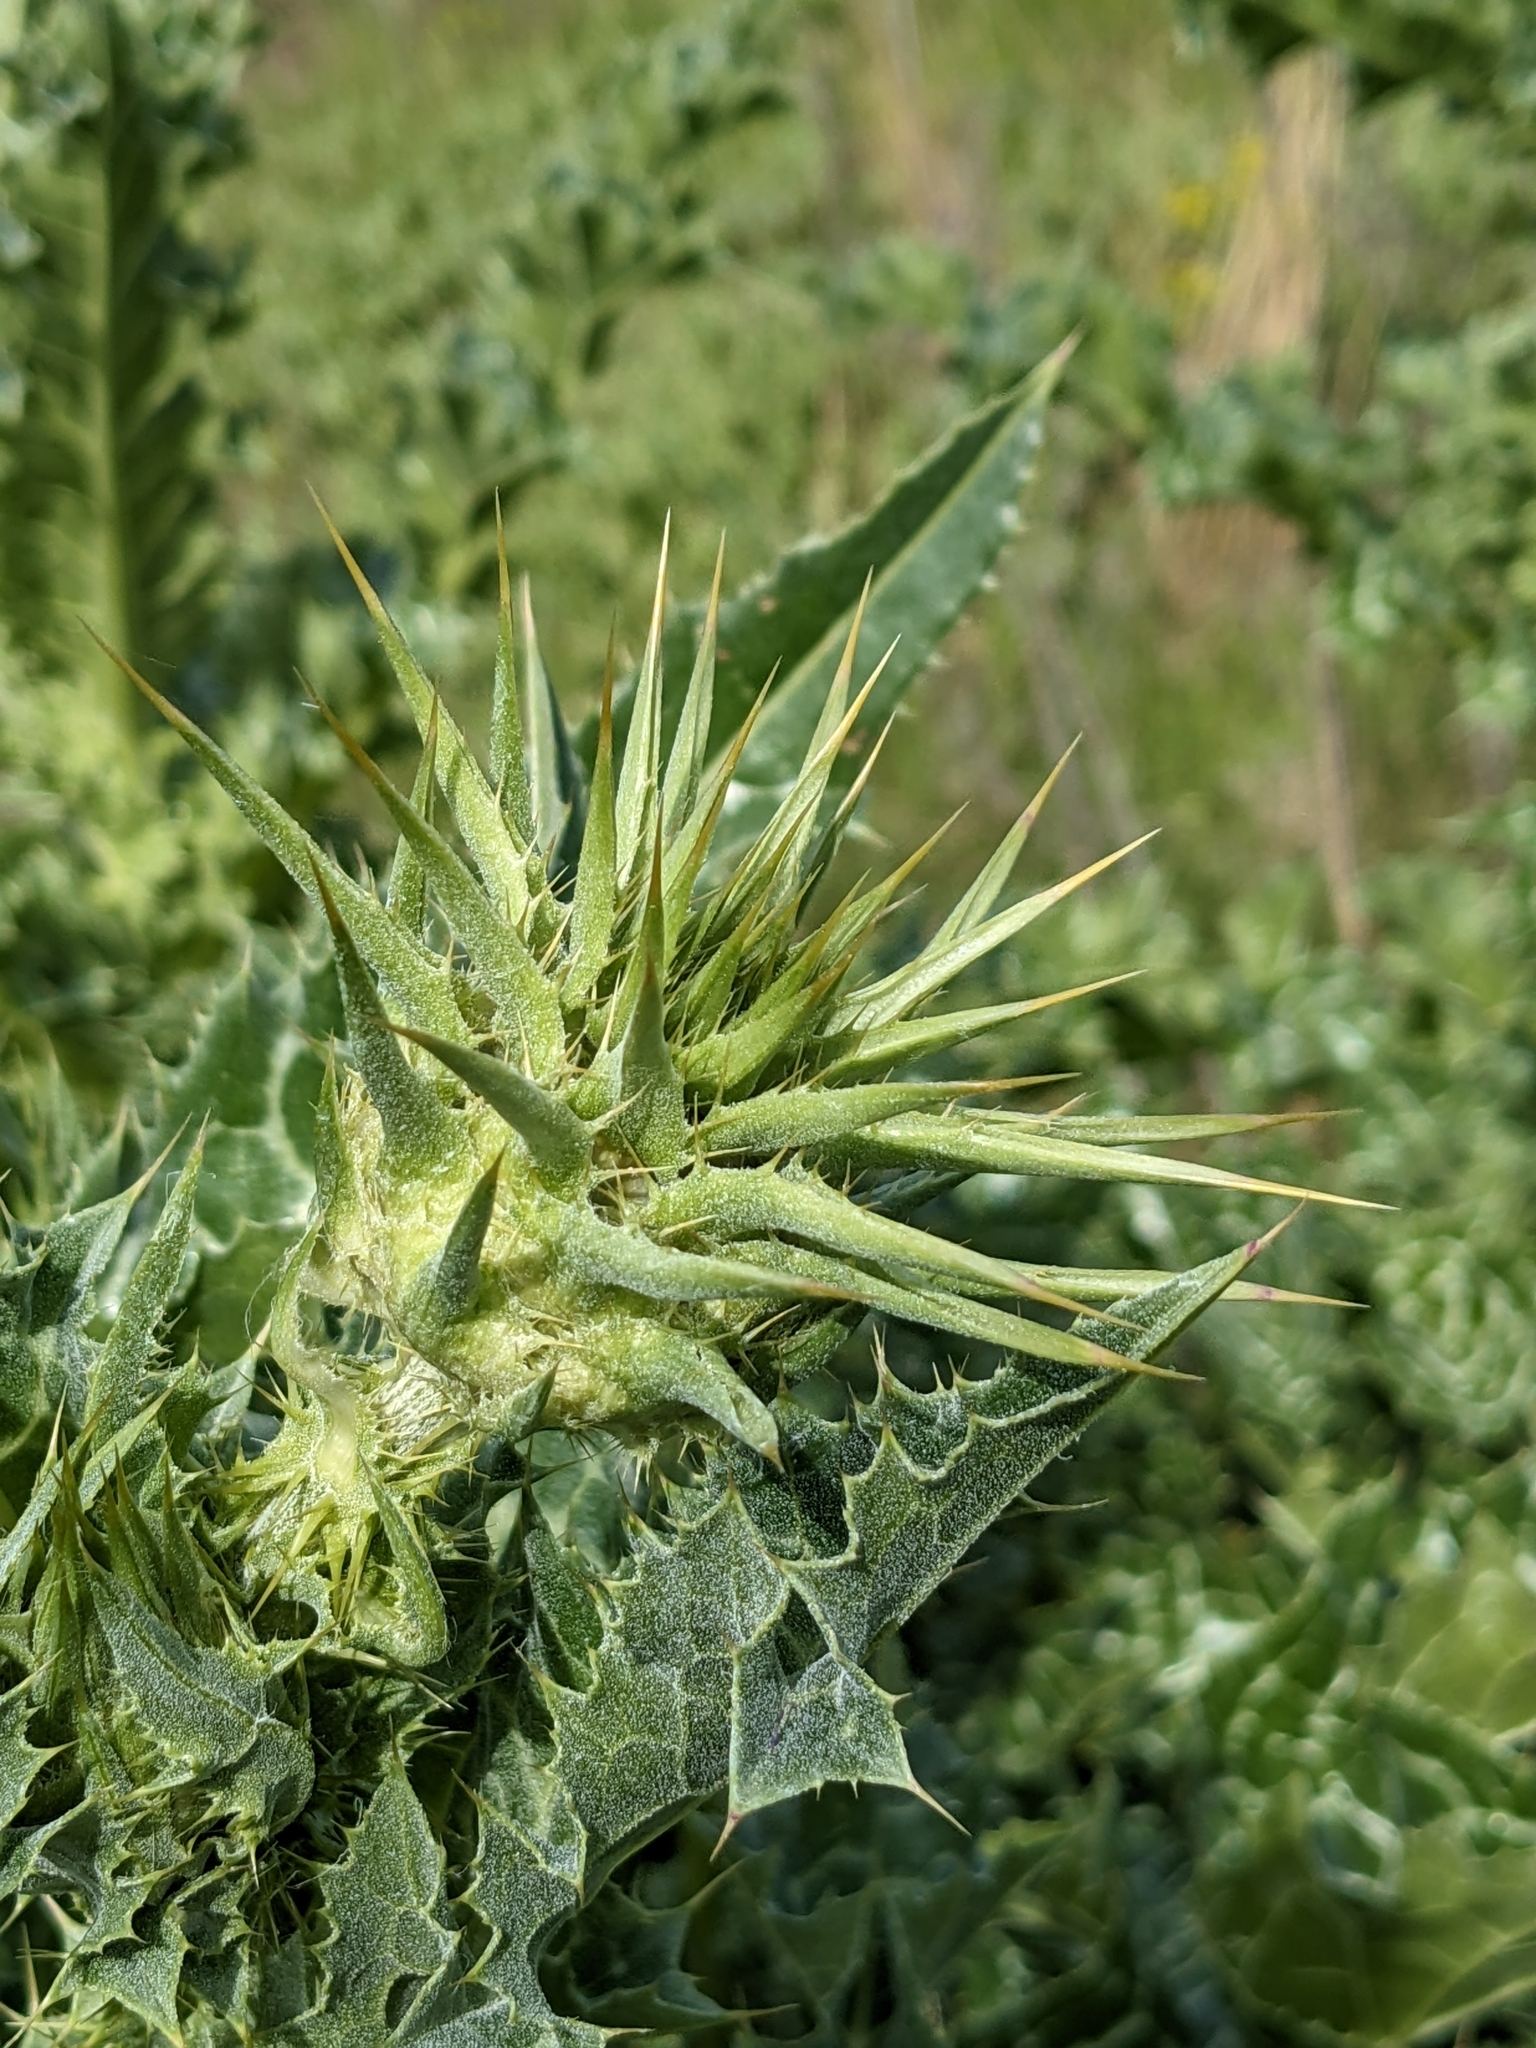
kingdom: Plantae
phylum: Tracheophyta
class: Magnoliopsida
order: Asterales
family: Asteraceae
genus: Silybum
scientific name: Silybum marianum
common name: Milk thistle
